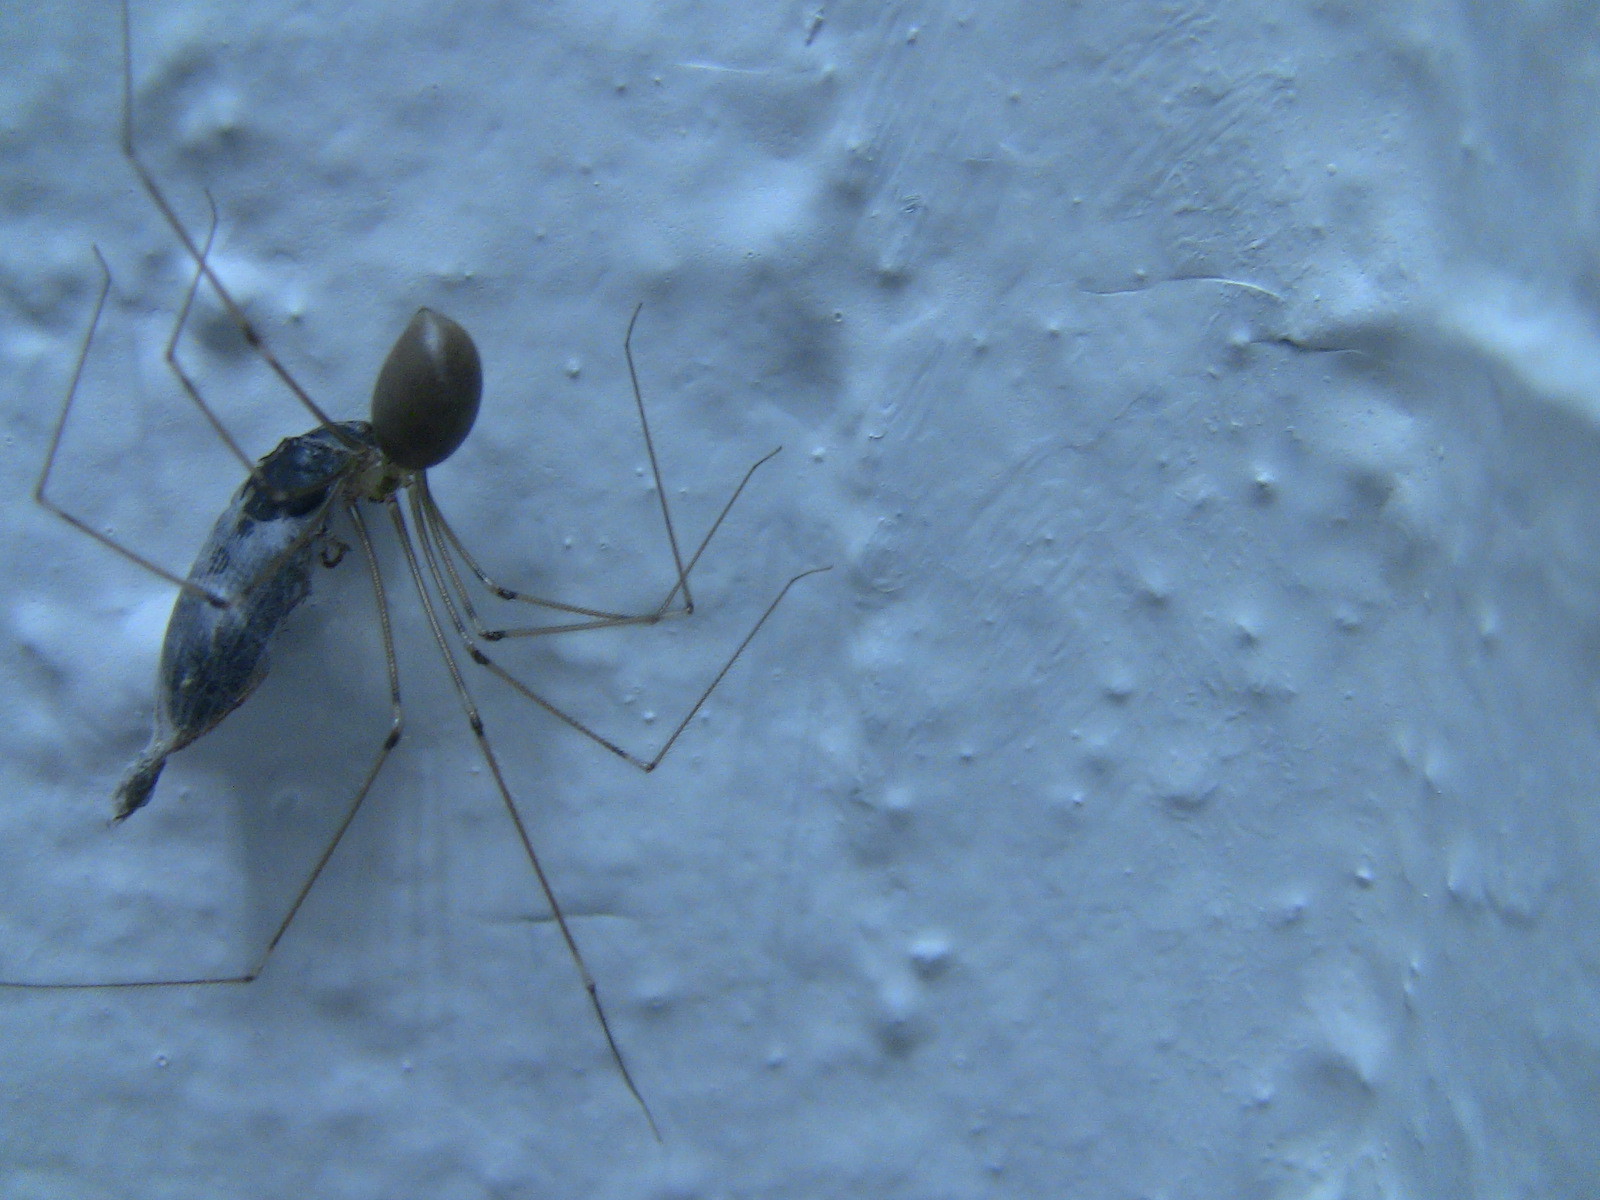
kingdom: Animalia
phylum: Arthropoda
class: Arachnida
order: Araneae
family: Pholcidae
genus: Pholcus
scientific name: Pholcus phalangioides
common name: Longbodied cellar spider
